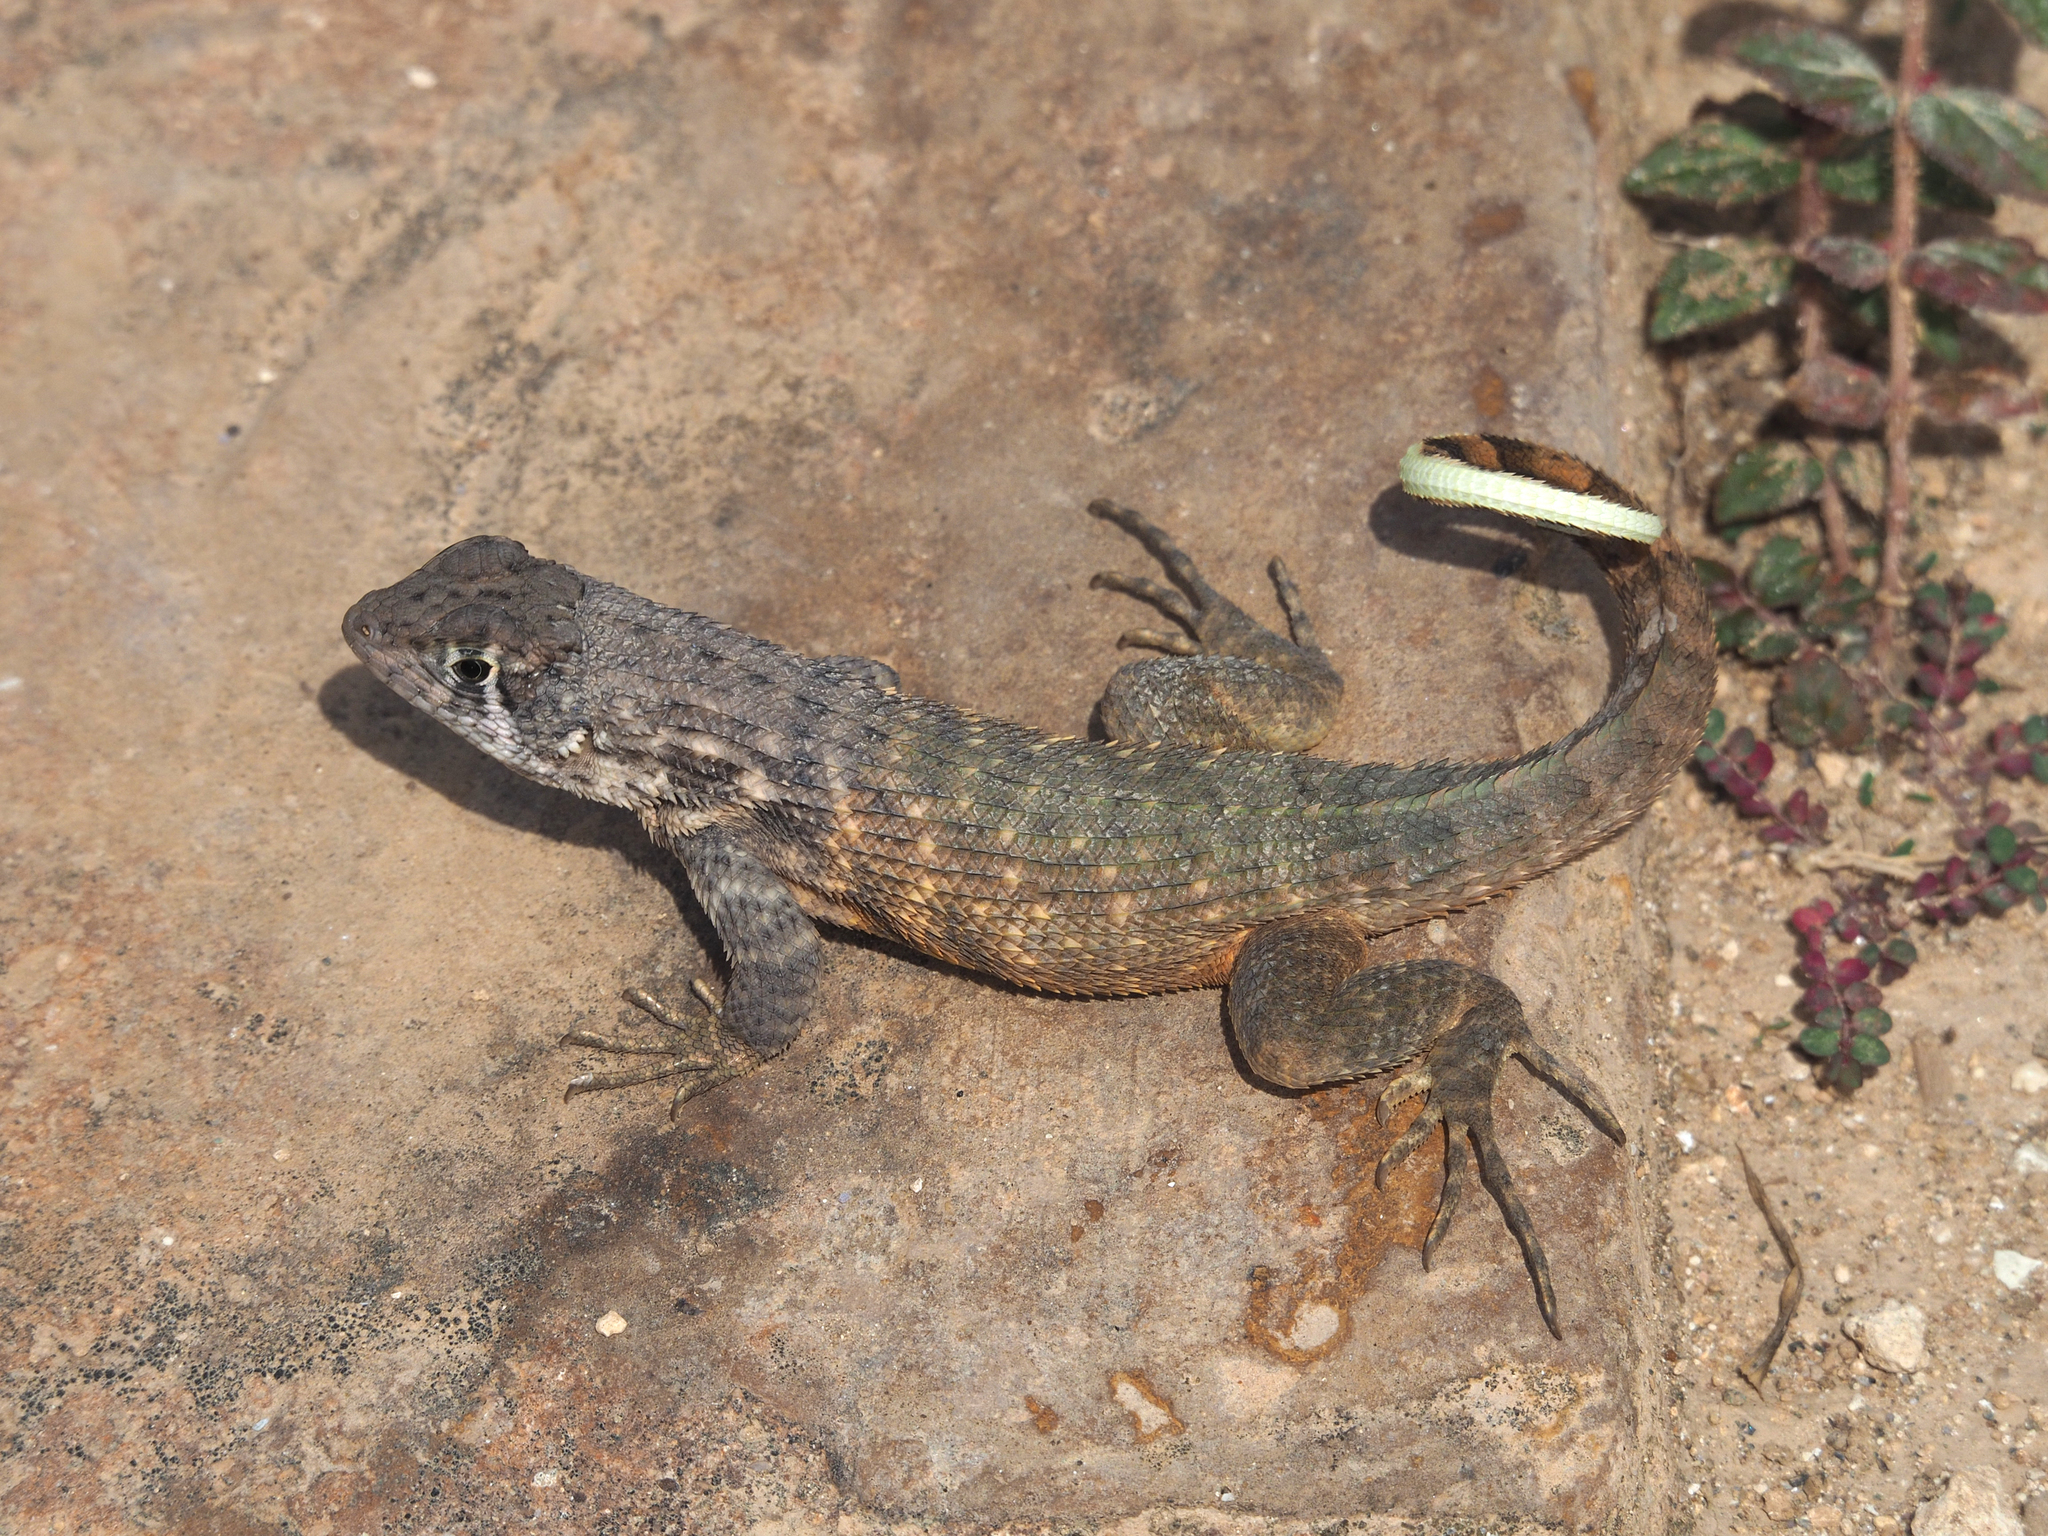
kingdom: Animalia
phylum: Chordata
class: Squamata
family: Leiocephalidae
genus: Leiocephalus
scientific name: Leiocephalus carinatus
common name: Northern curly-tailed lizard
